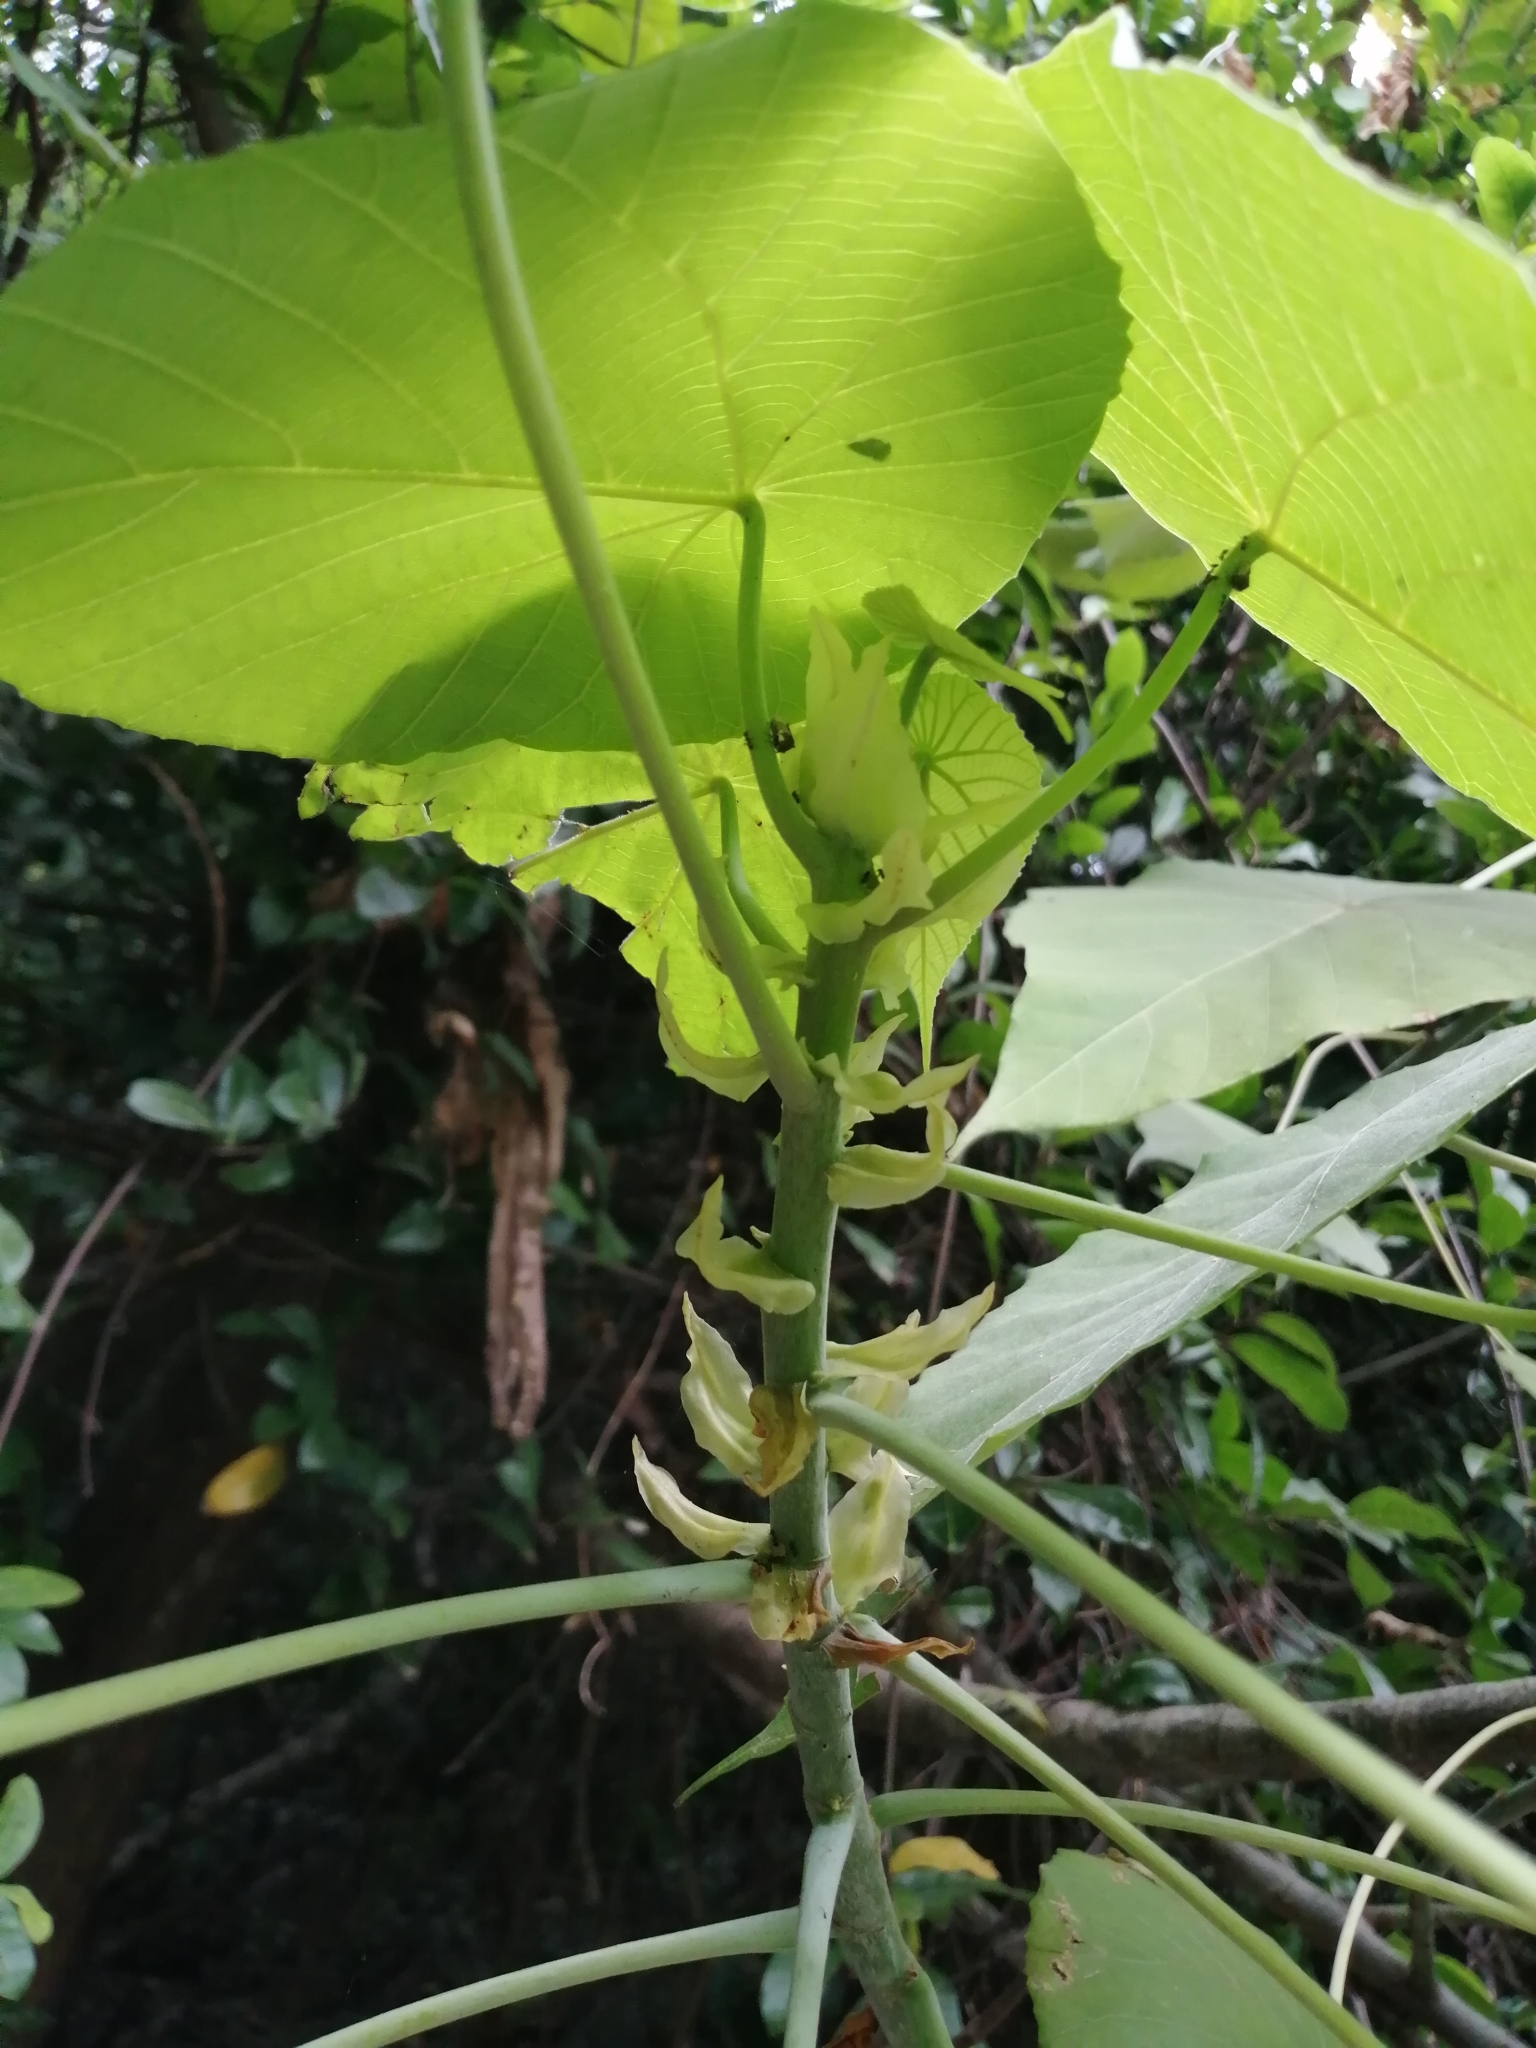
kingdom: Plantae
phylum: Tracheophyta
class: Magnoliopsida
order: Malpighiales
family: Euphorbiaceae
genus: Macaranga
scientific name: Macaranga tanarius
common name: Parasol leaf tree
